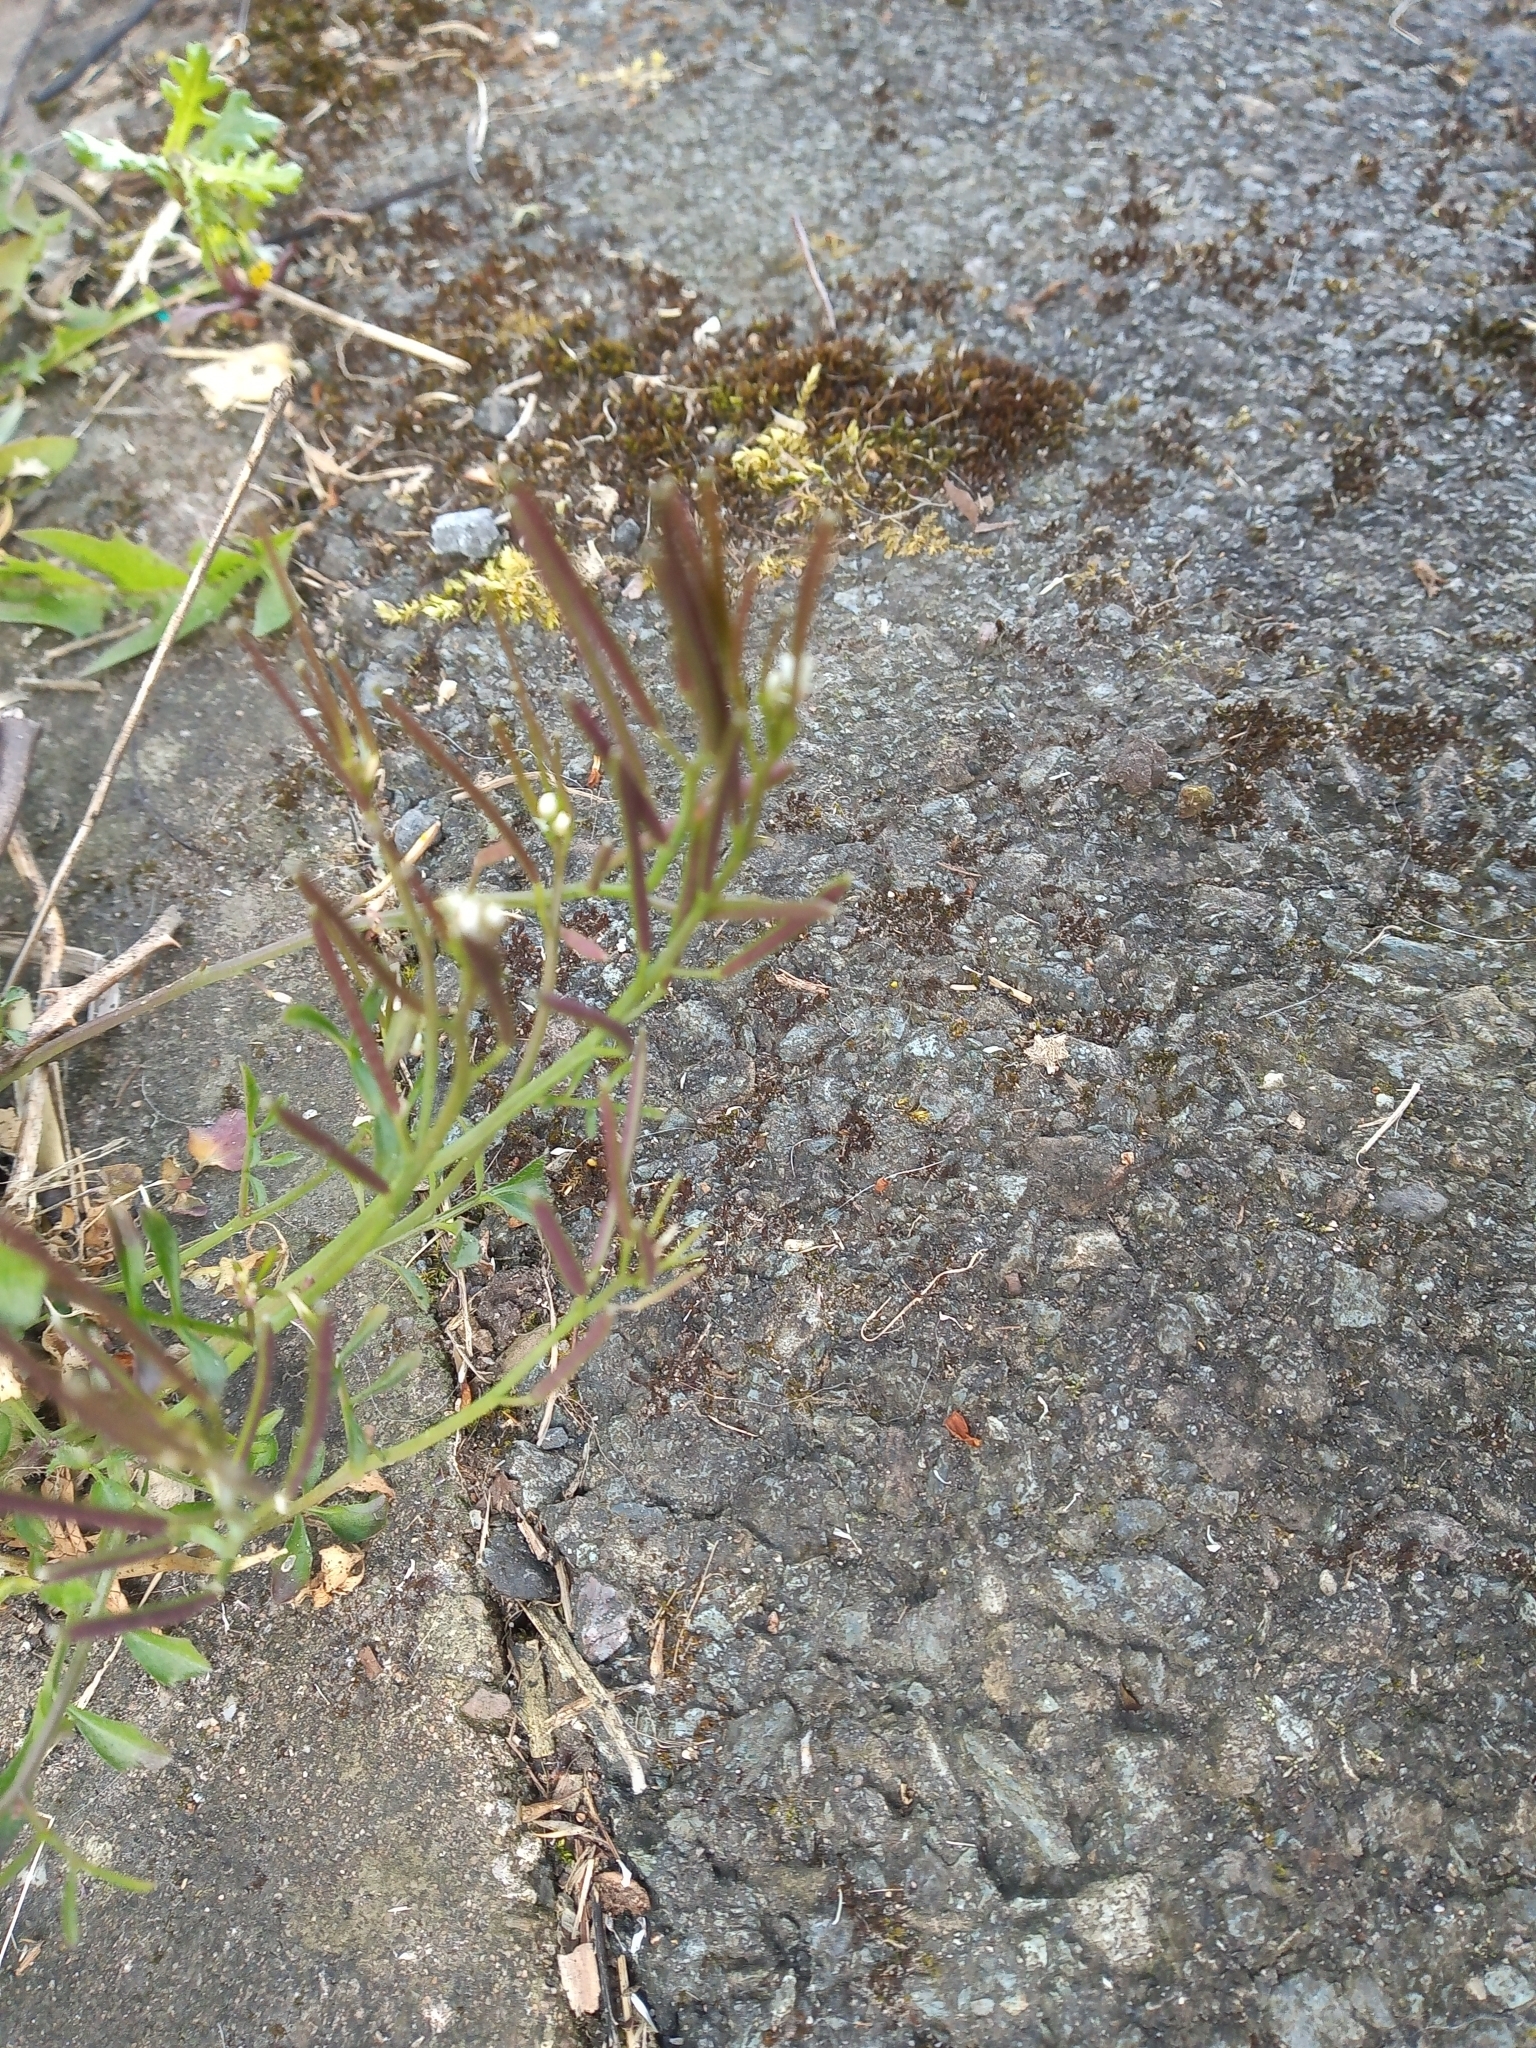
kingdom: Plantae
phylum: Tracheophyta
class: Magnoliopsida
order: Brassicales
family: Brassicaceae
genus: Cardamine
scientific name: Cardamine hirsuta
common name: Hairy bittercress
